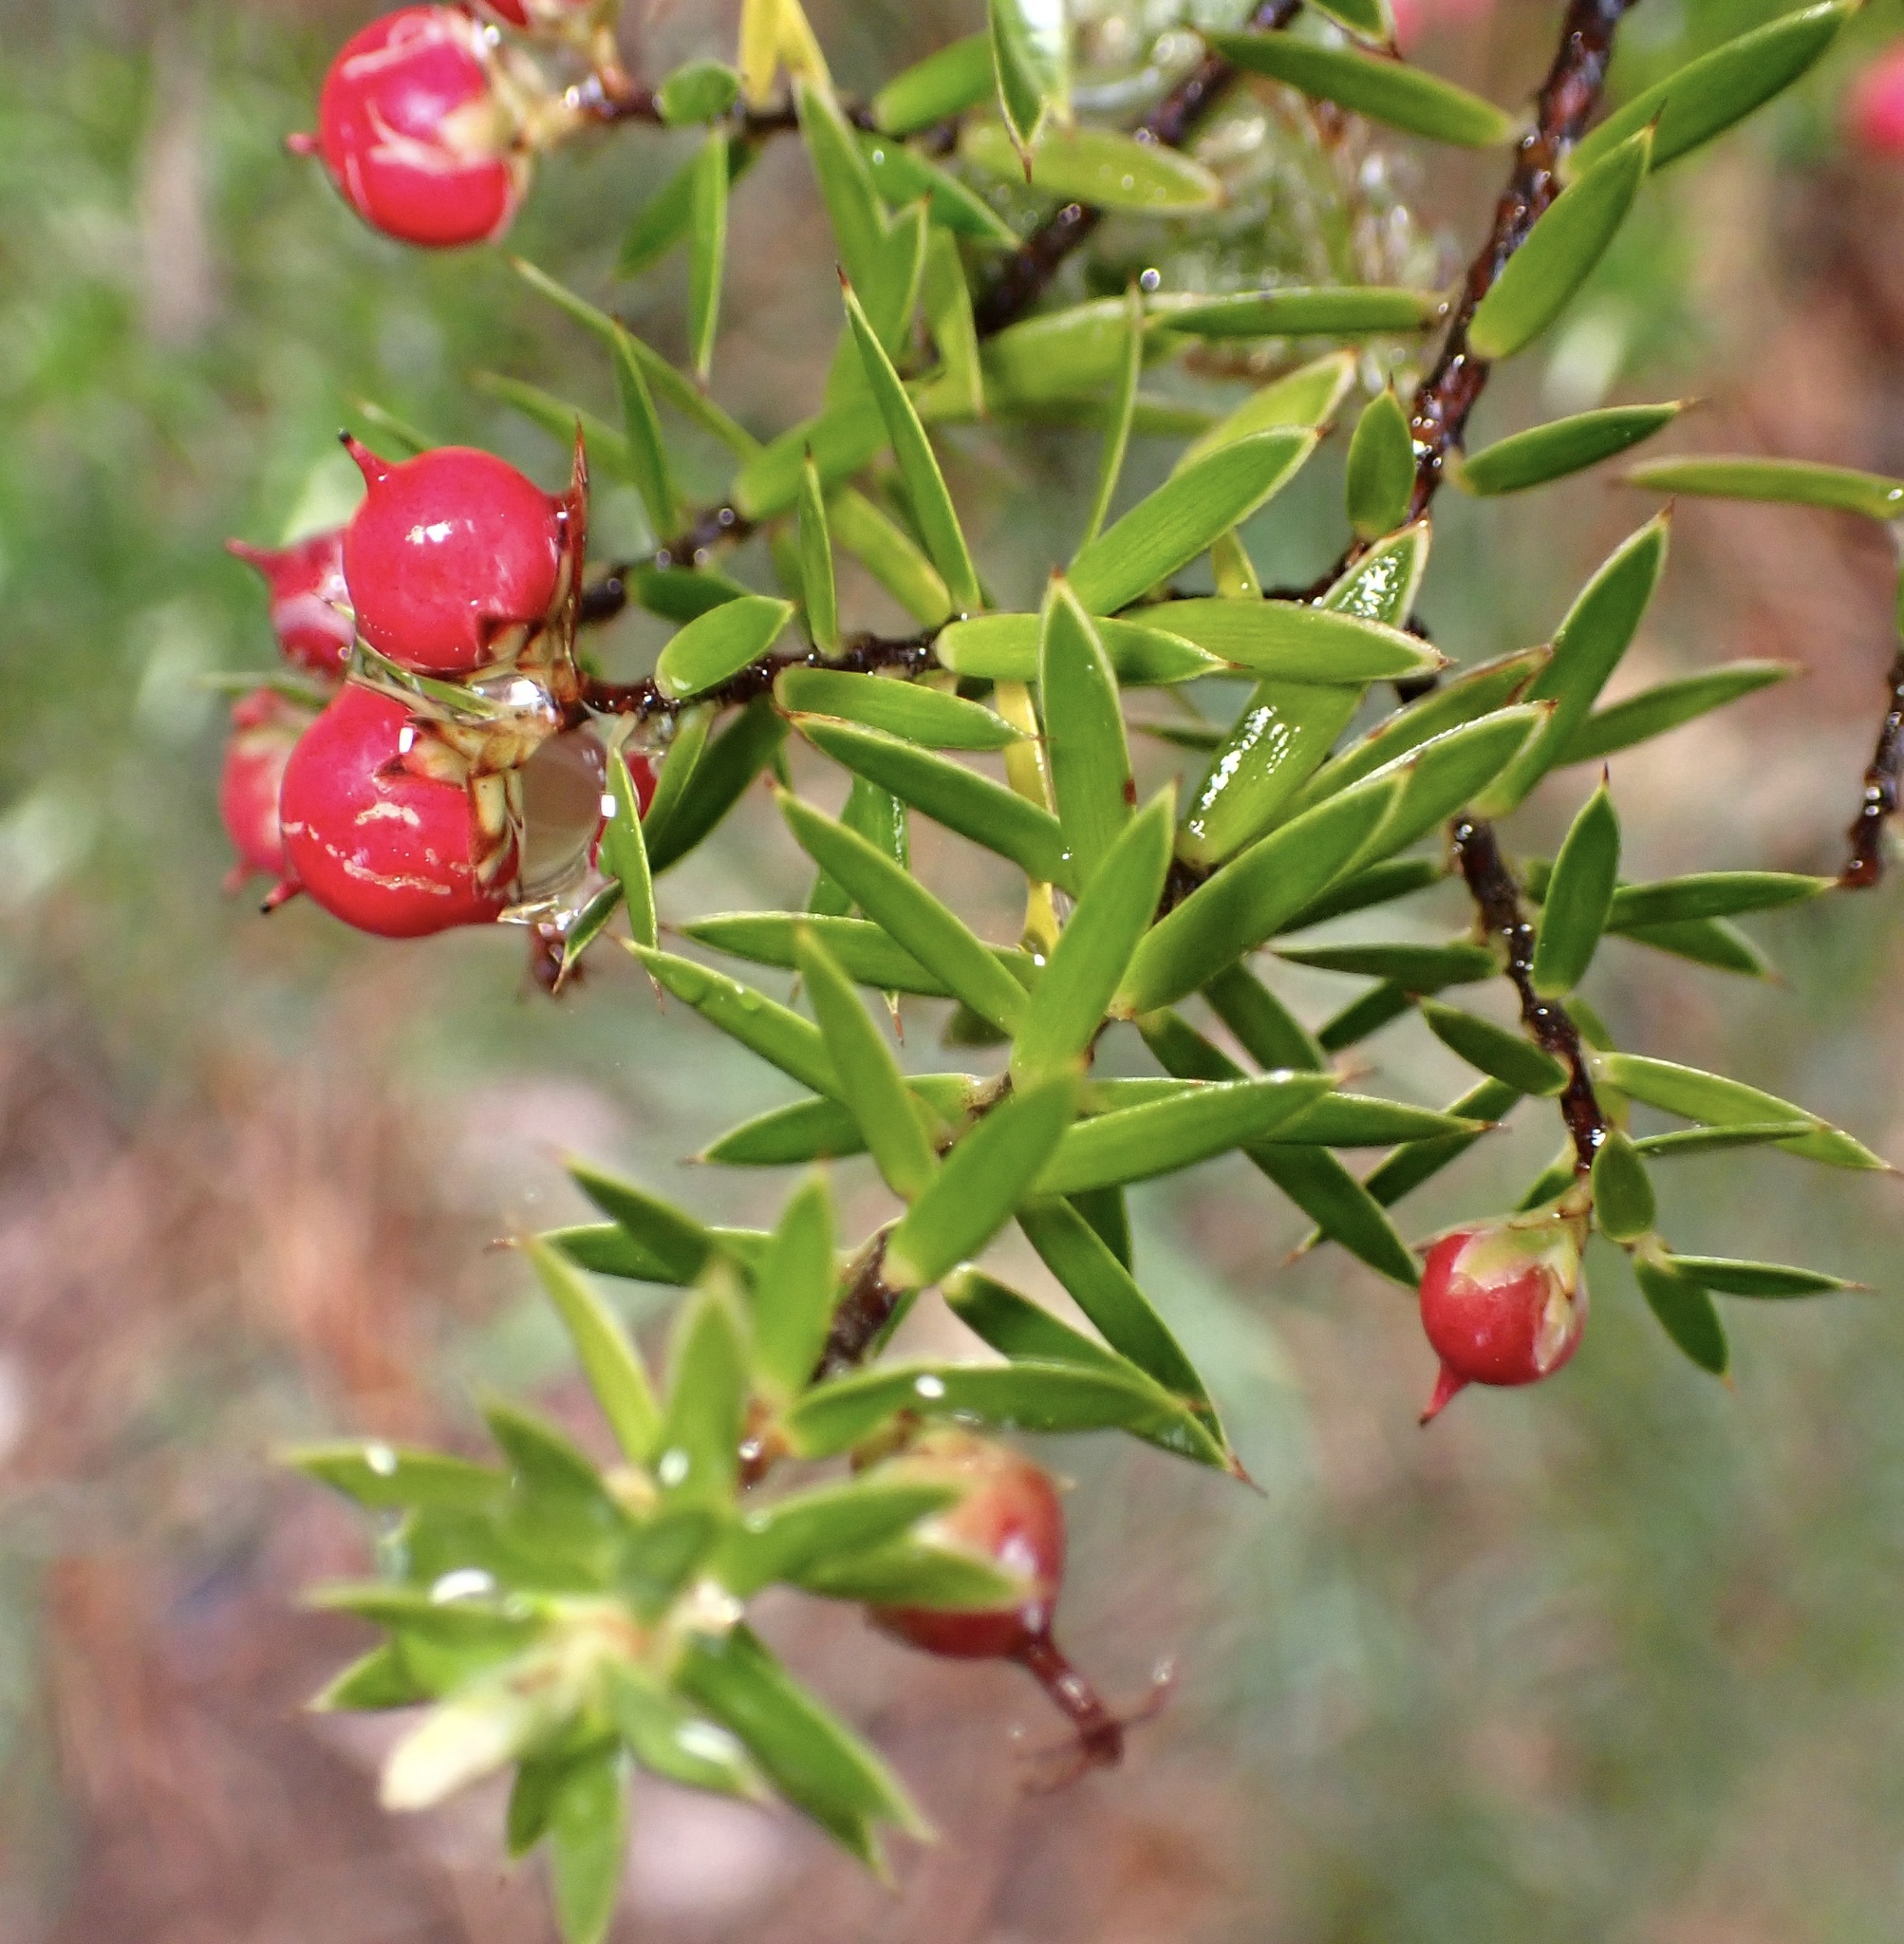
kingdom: Plantae
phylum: Tracheophyta
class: Magnoliopsida
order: Ericales
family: Ericaceae
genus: Leptecophylla
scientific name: Leptecophylla tameiameiae
